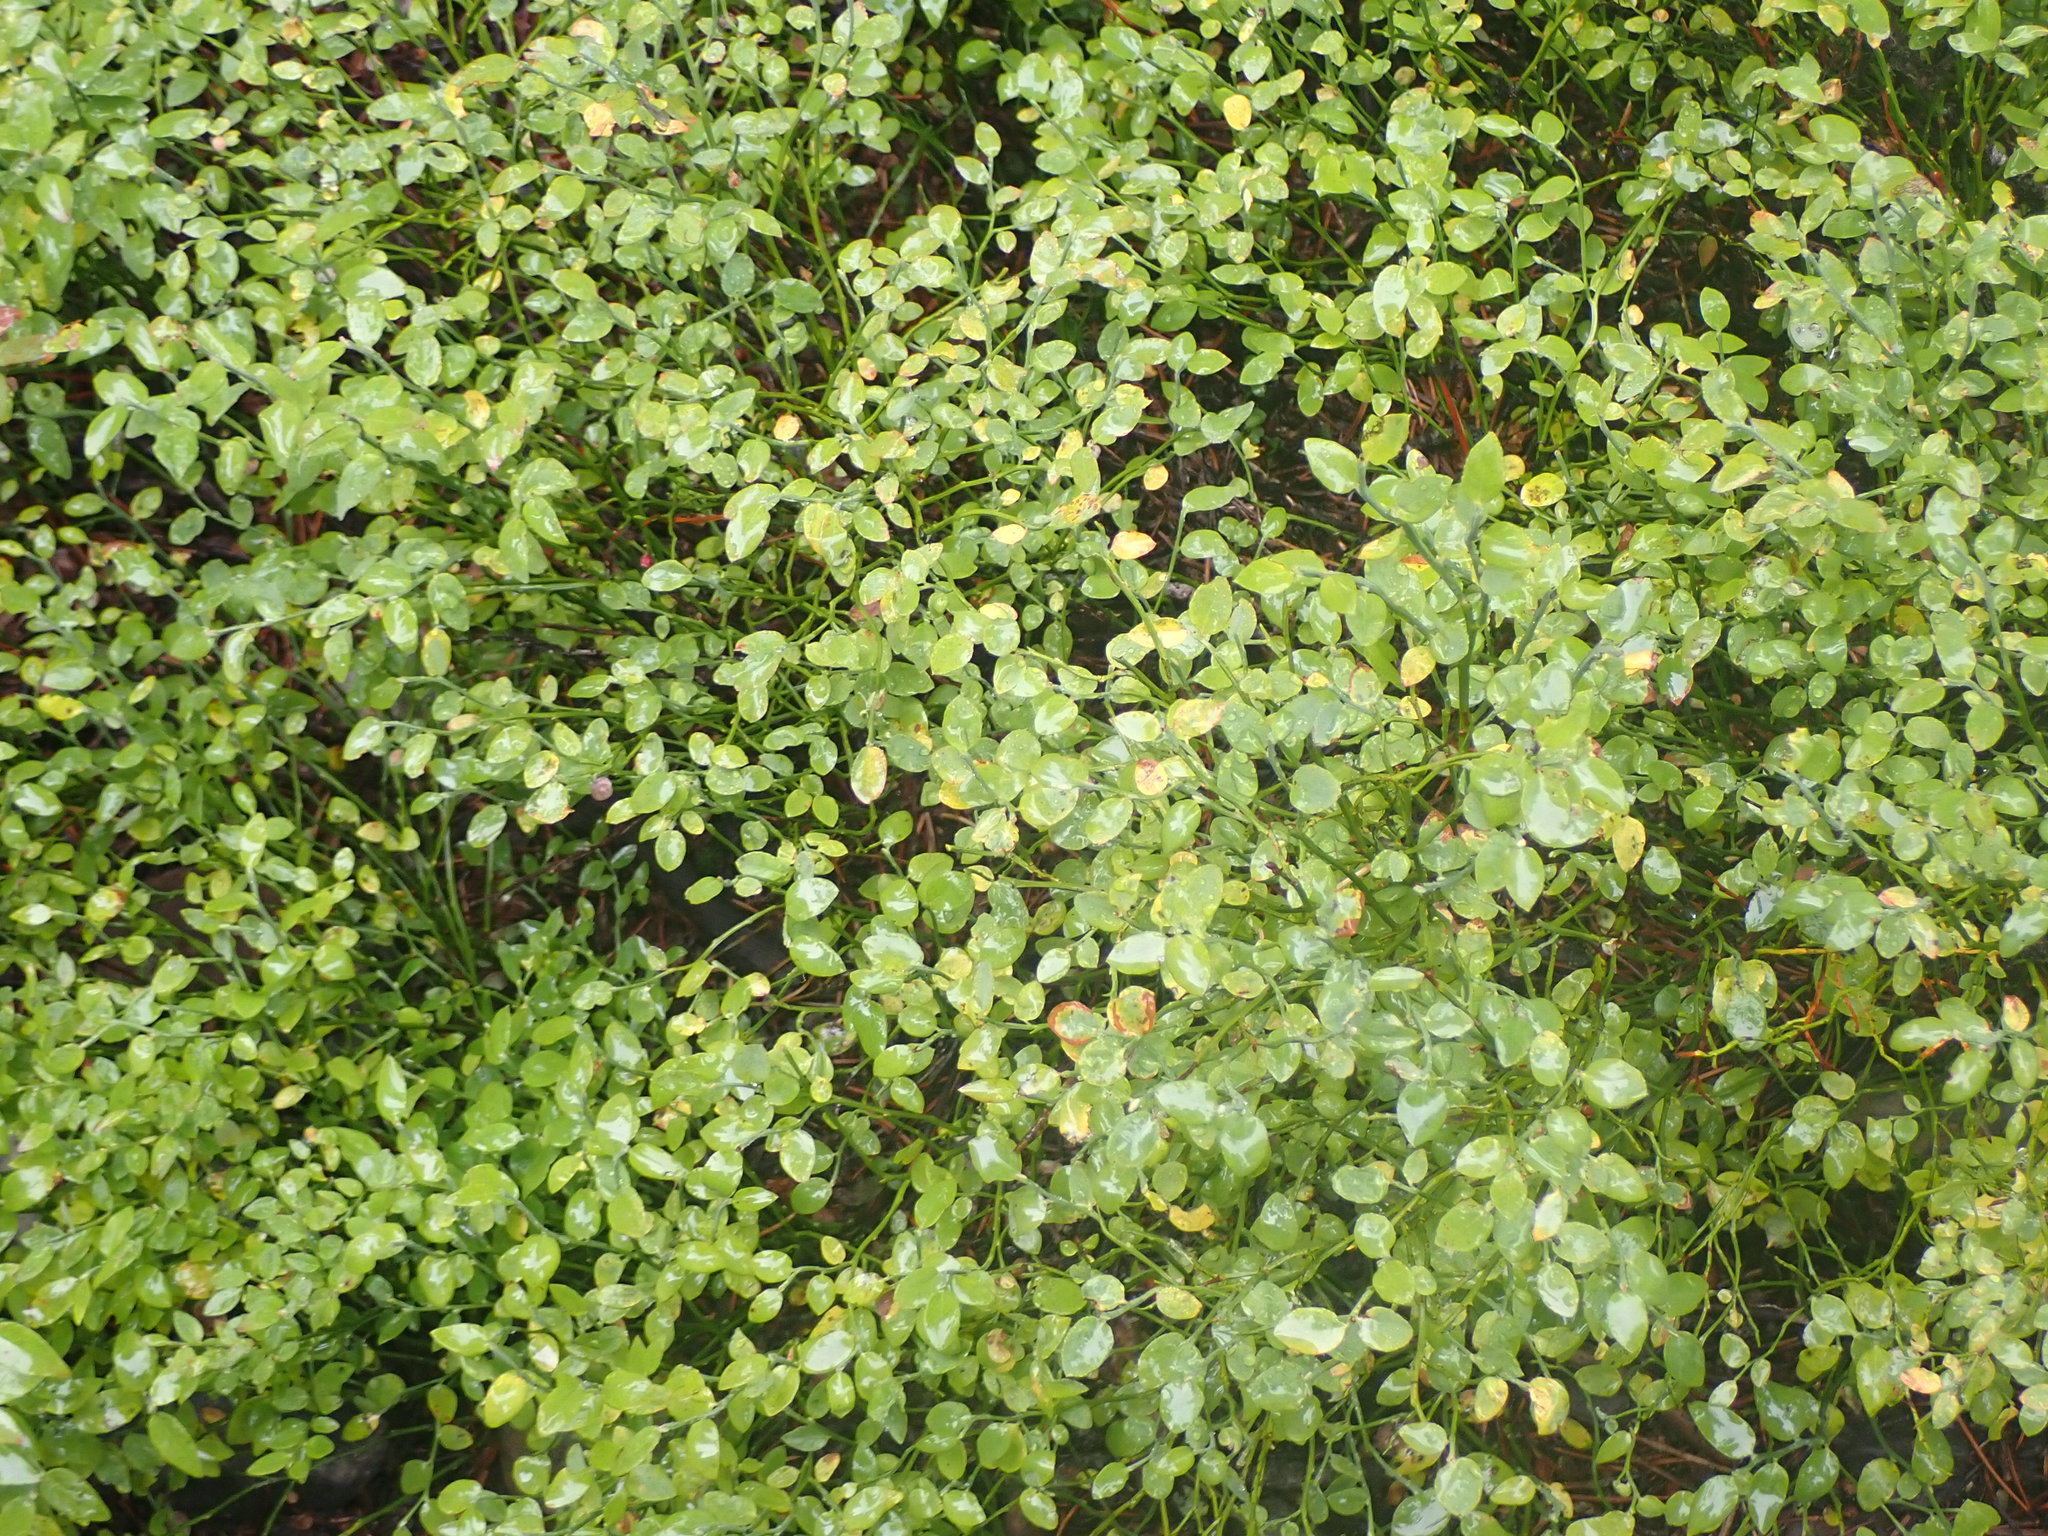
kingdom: Plantae
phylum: Tracheophyta
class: Magnoliopsida
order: Ericales
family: Ericaceae
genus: Vaccinium
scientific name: Vaccinium scoparium
